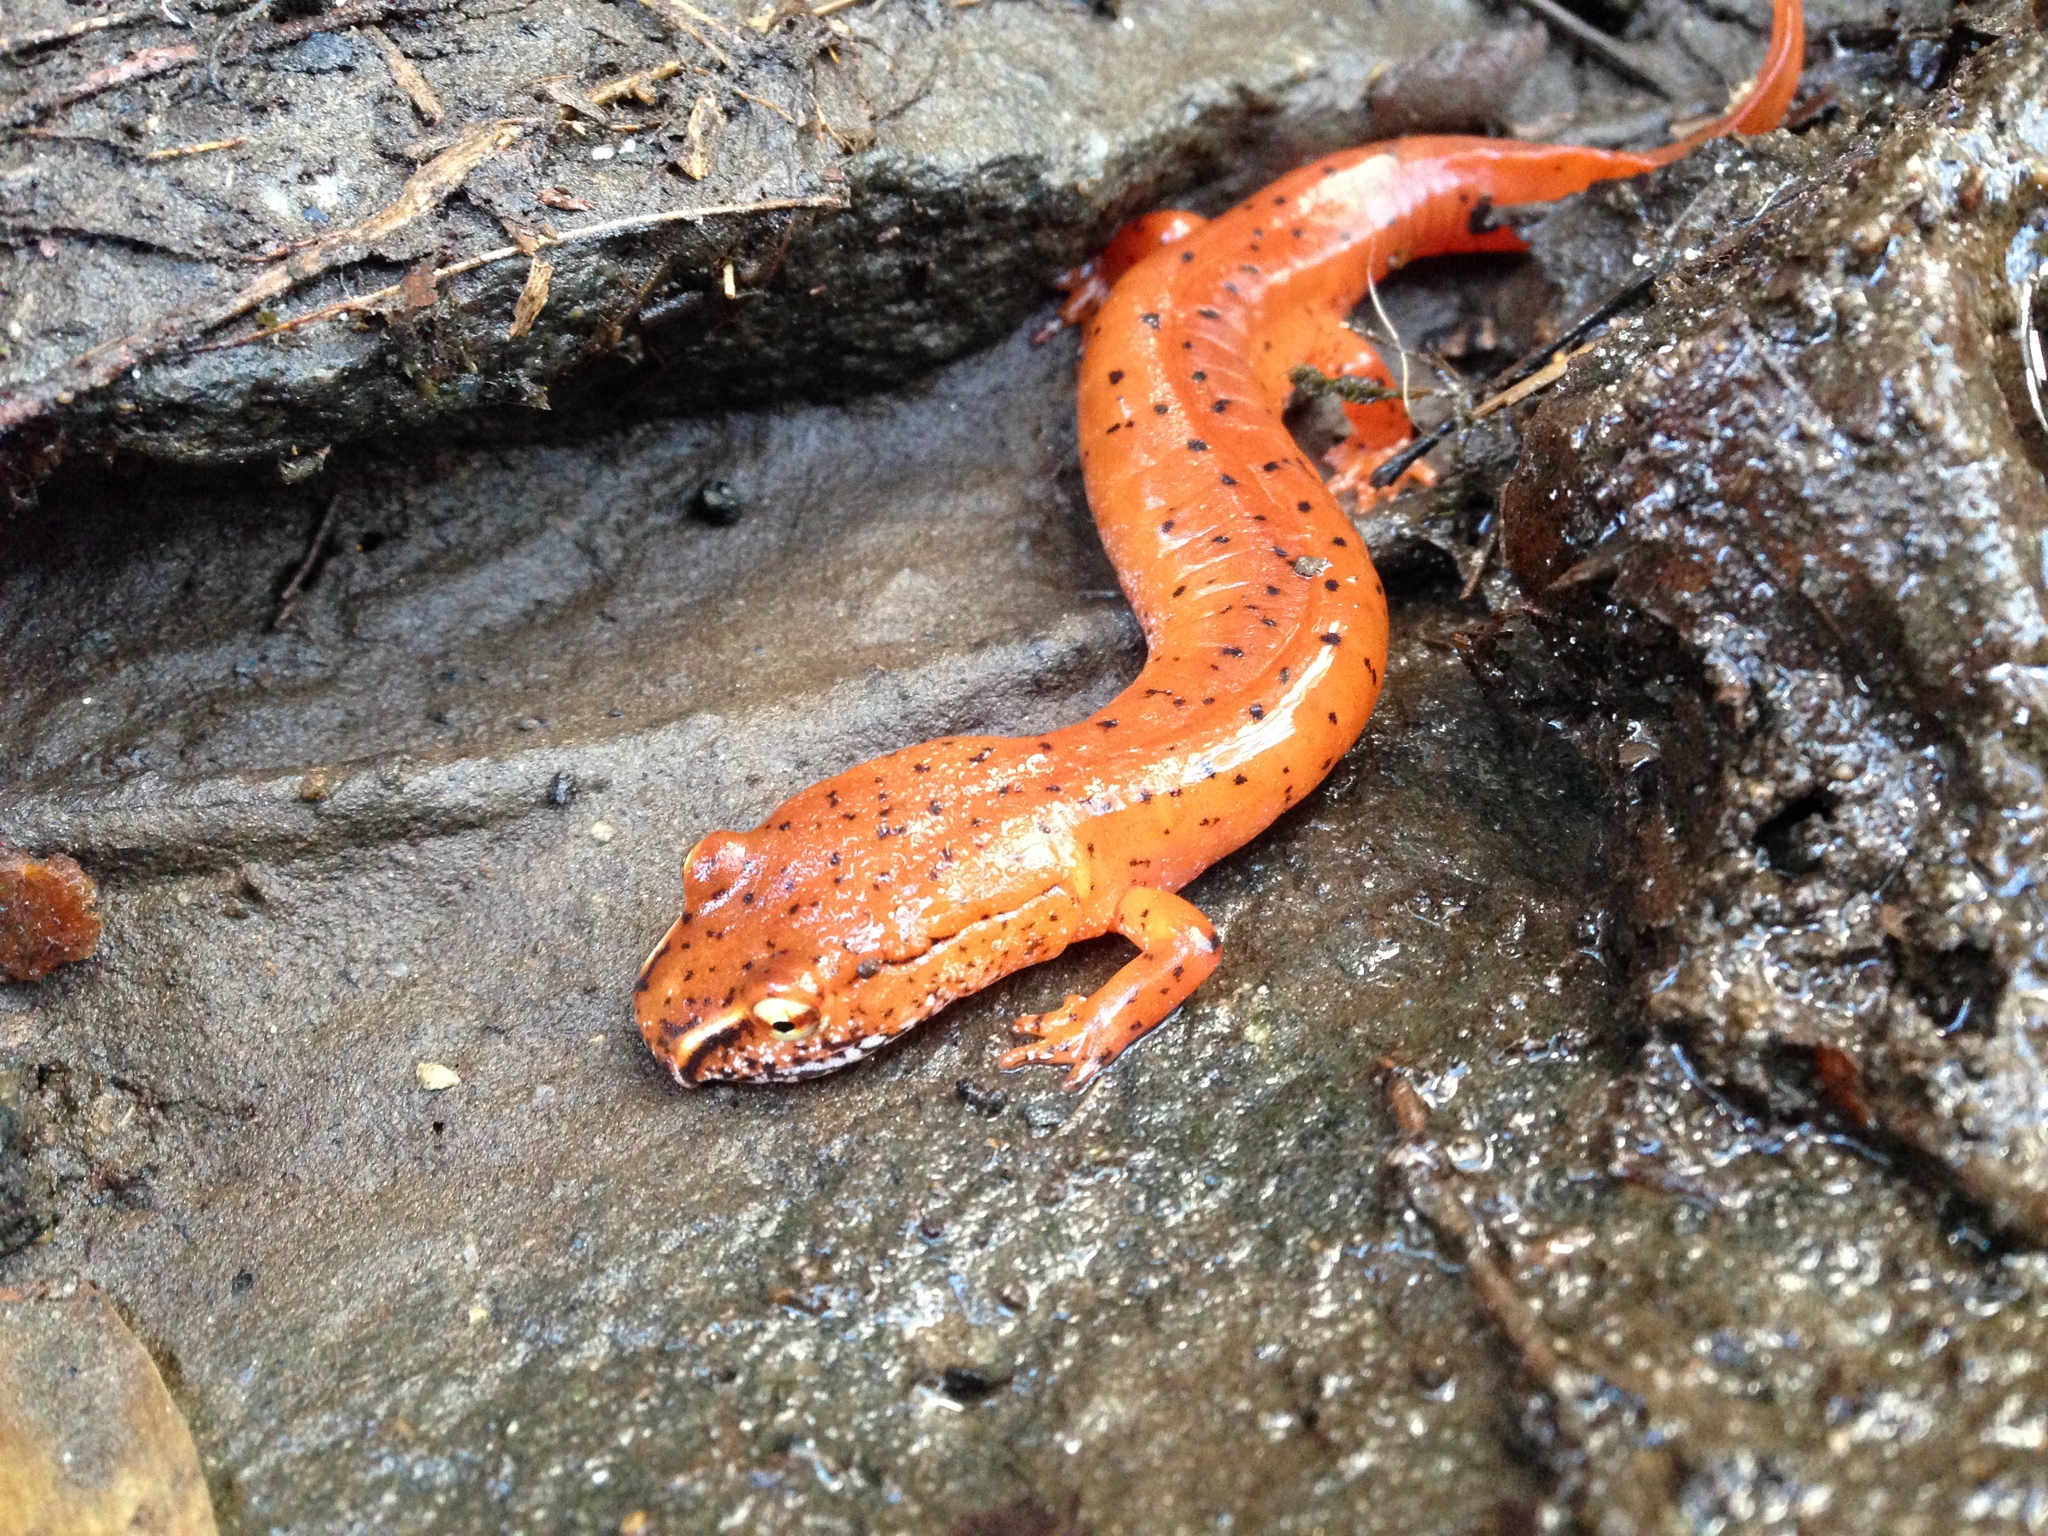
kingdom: Animalia
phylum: Chordata
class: Amphibia
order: Caudata
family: Plethodontidae
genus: Gyrinophilus
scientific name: Gyrinophilus porphyriticus
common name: Spring salamander
